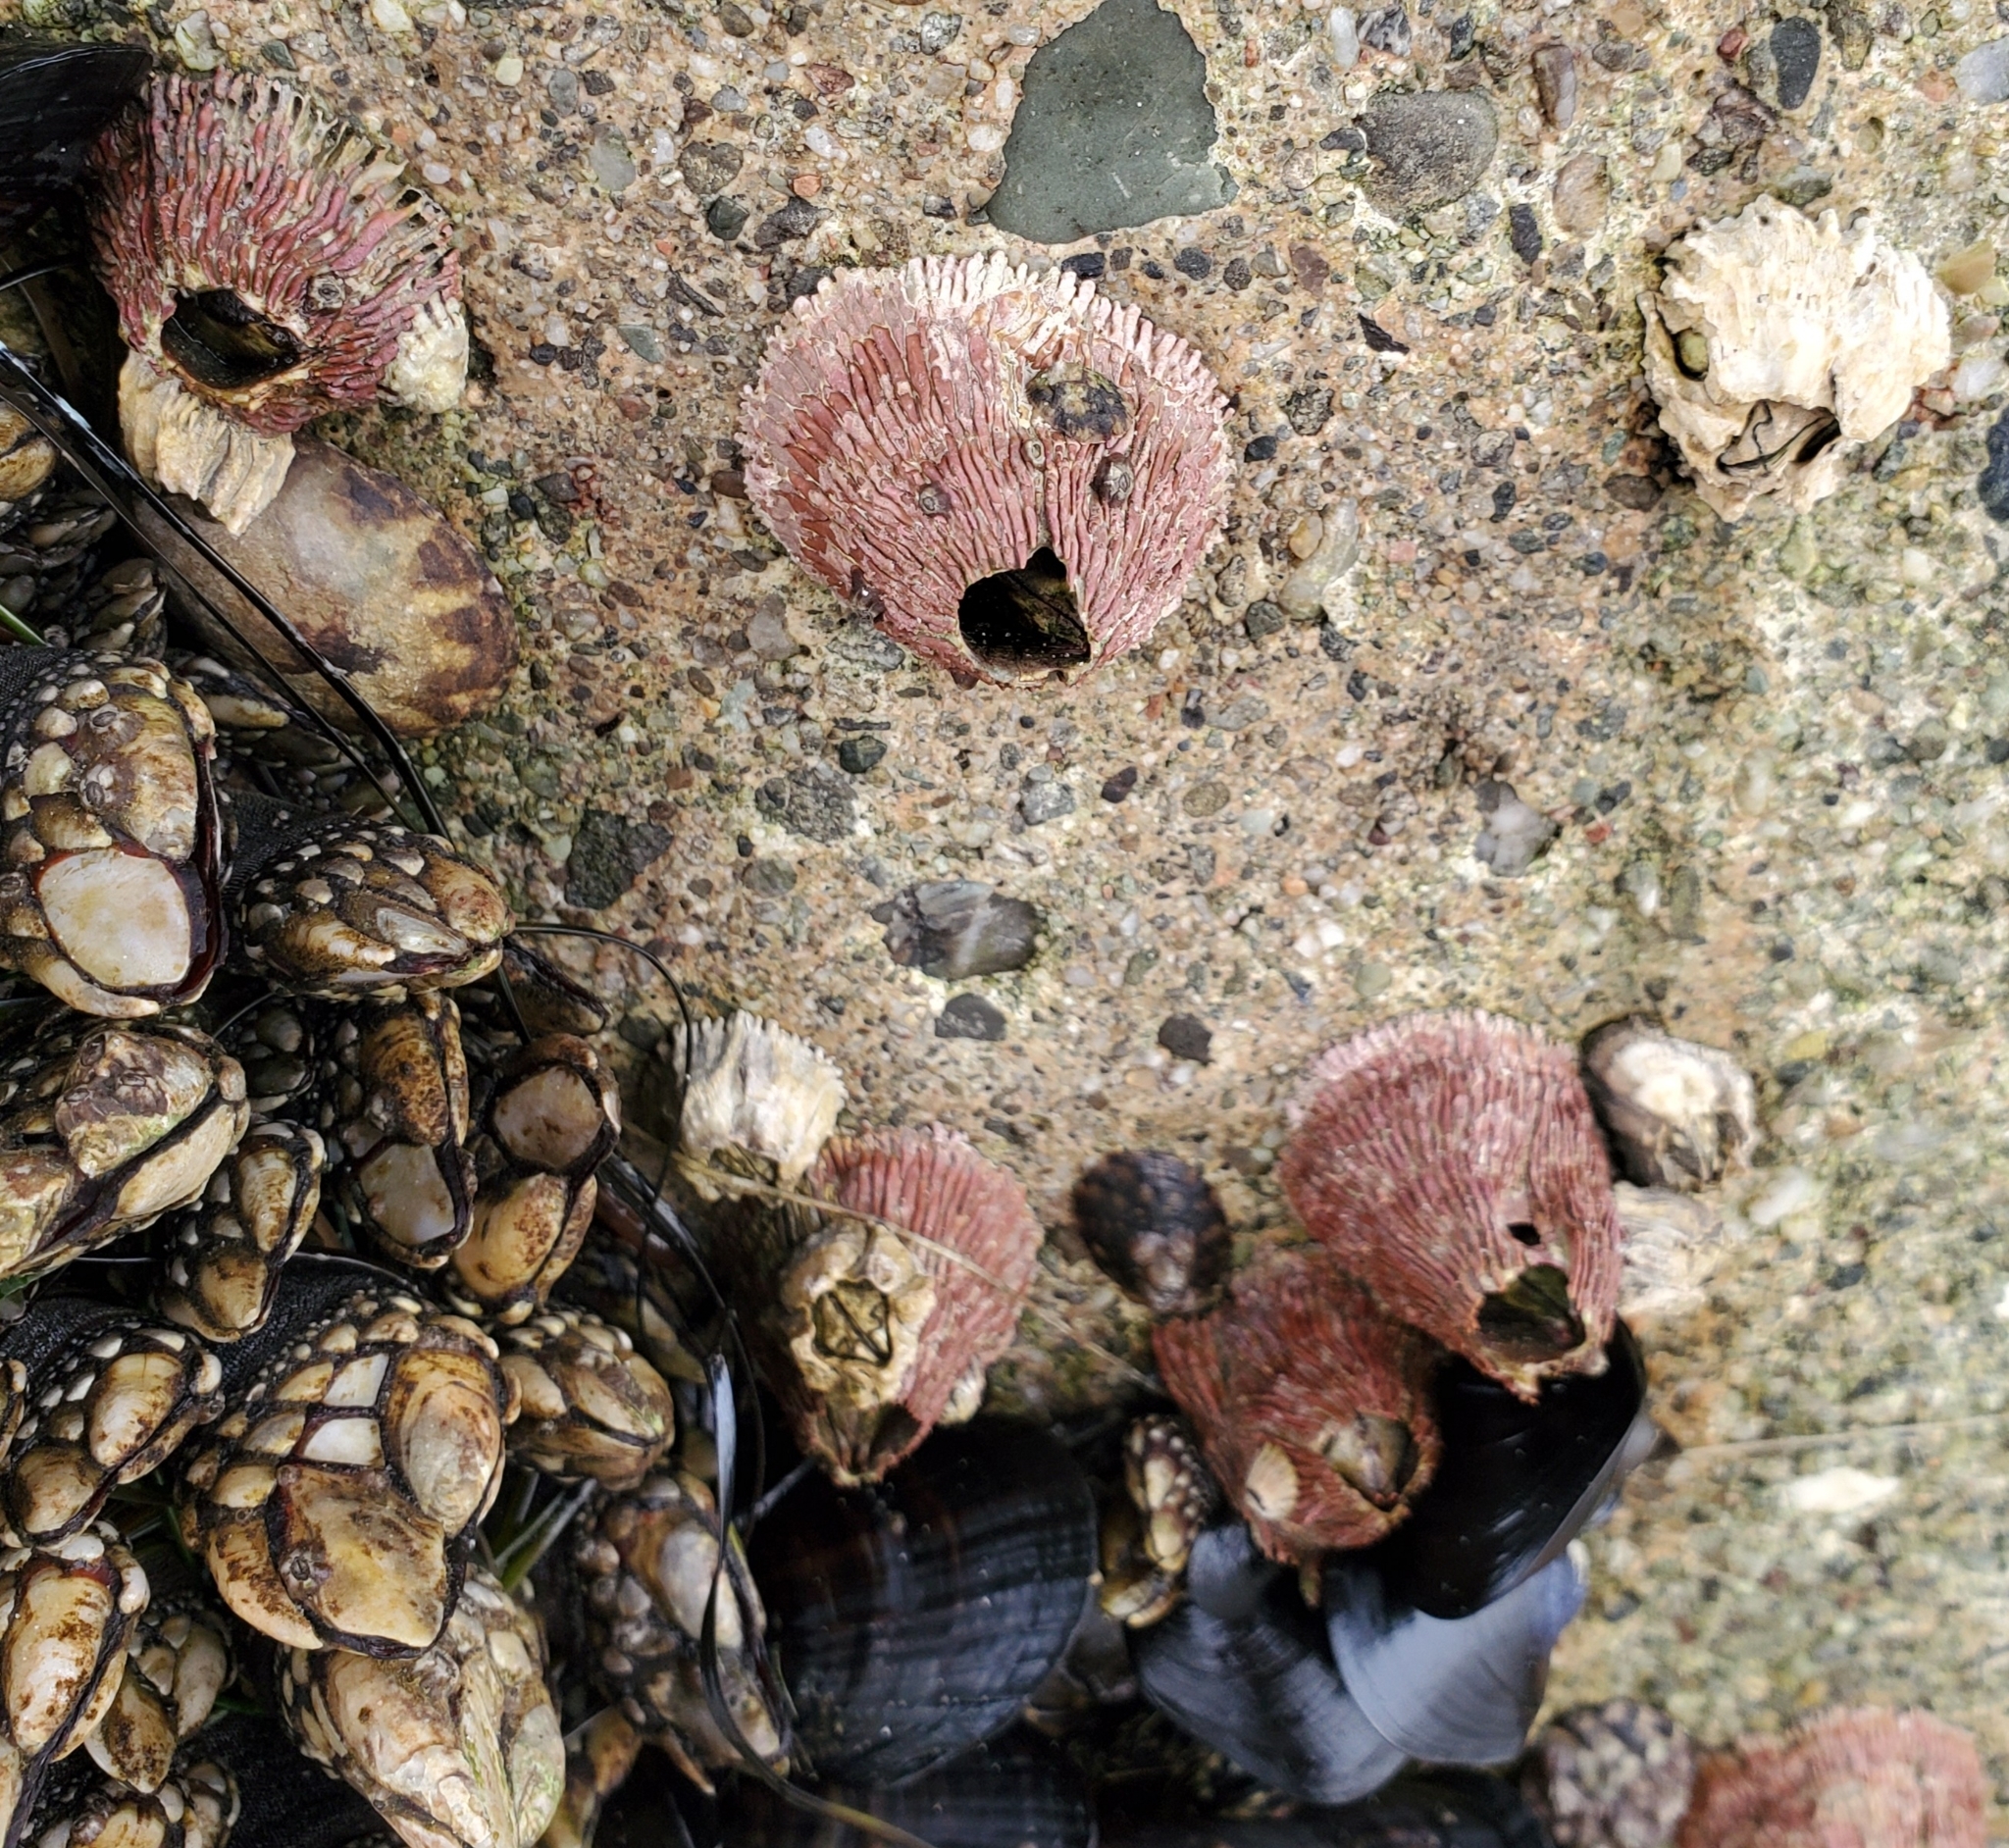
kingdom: Animalia
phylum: Arthropoda
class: Maxillopoda
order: Sessilia
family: Tetraclitidae
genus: Tetraclita
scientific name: Tetraclita rubescens
